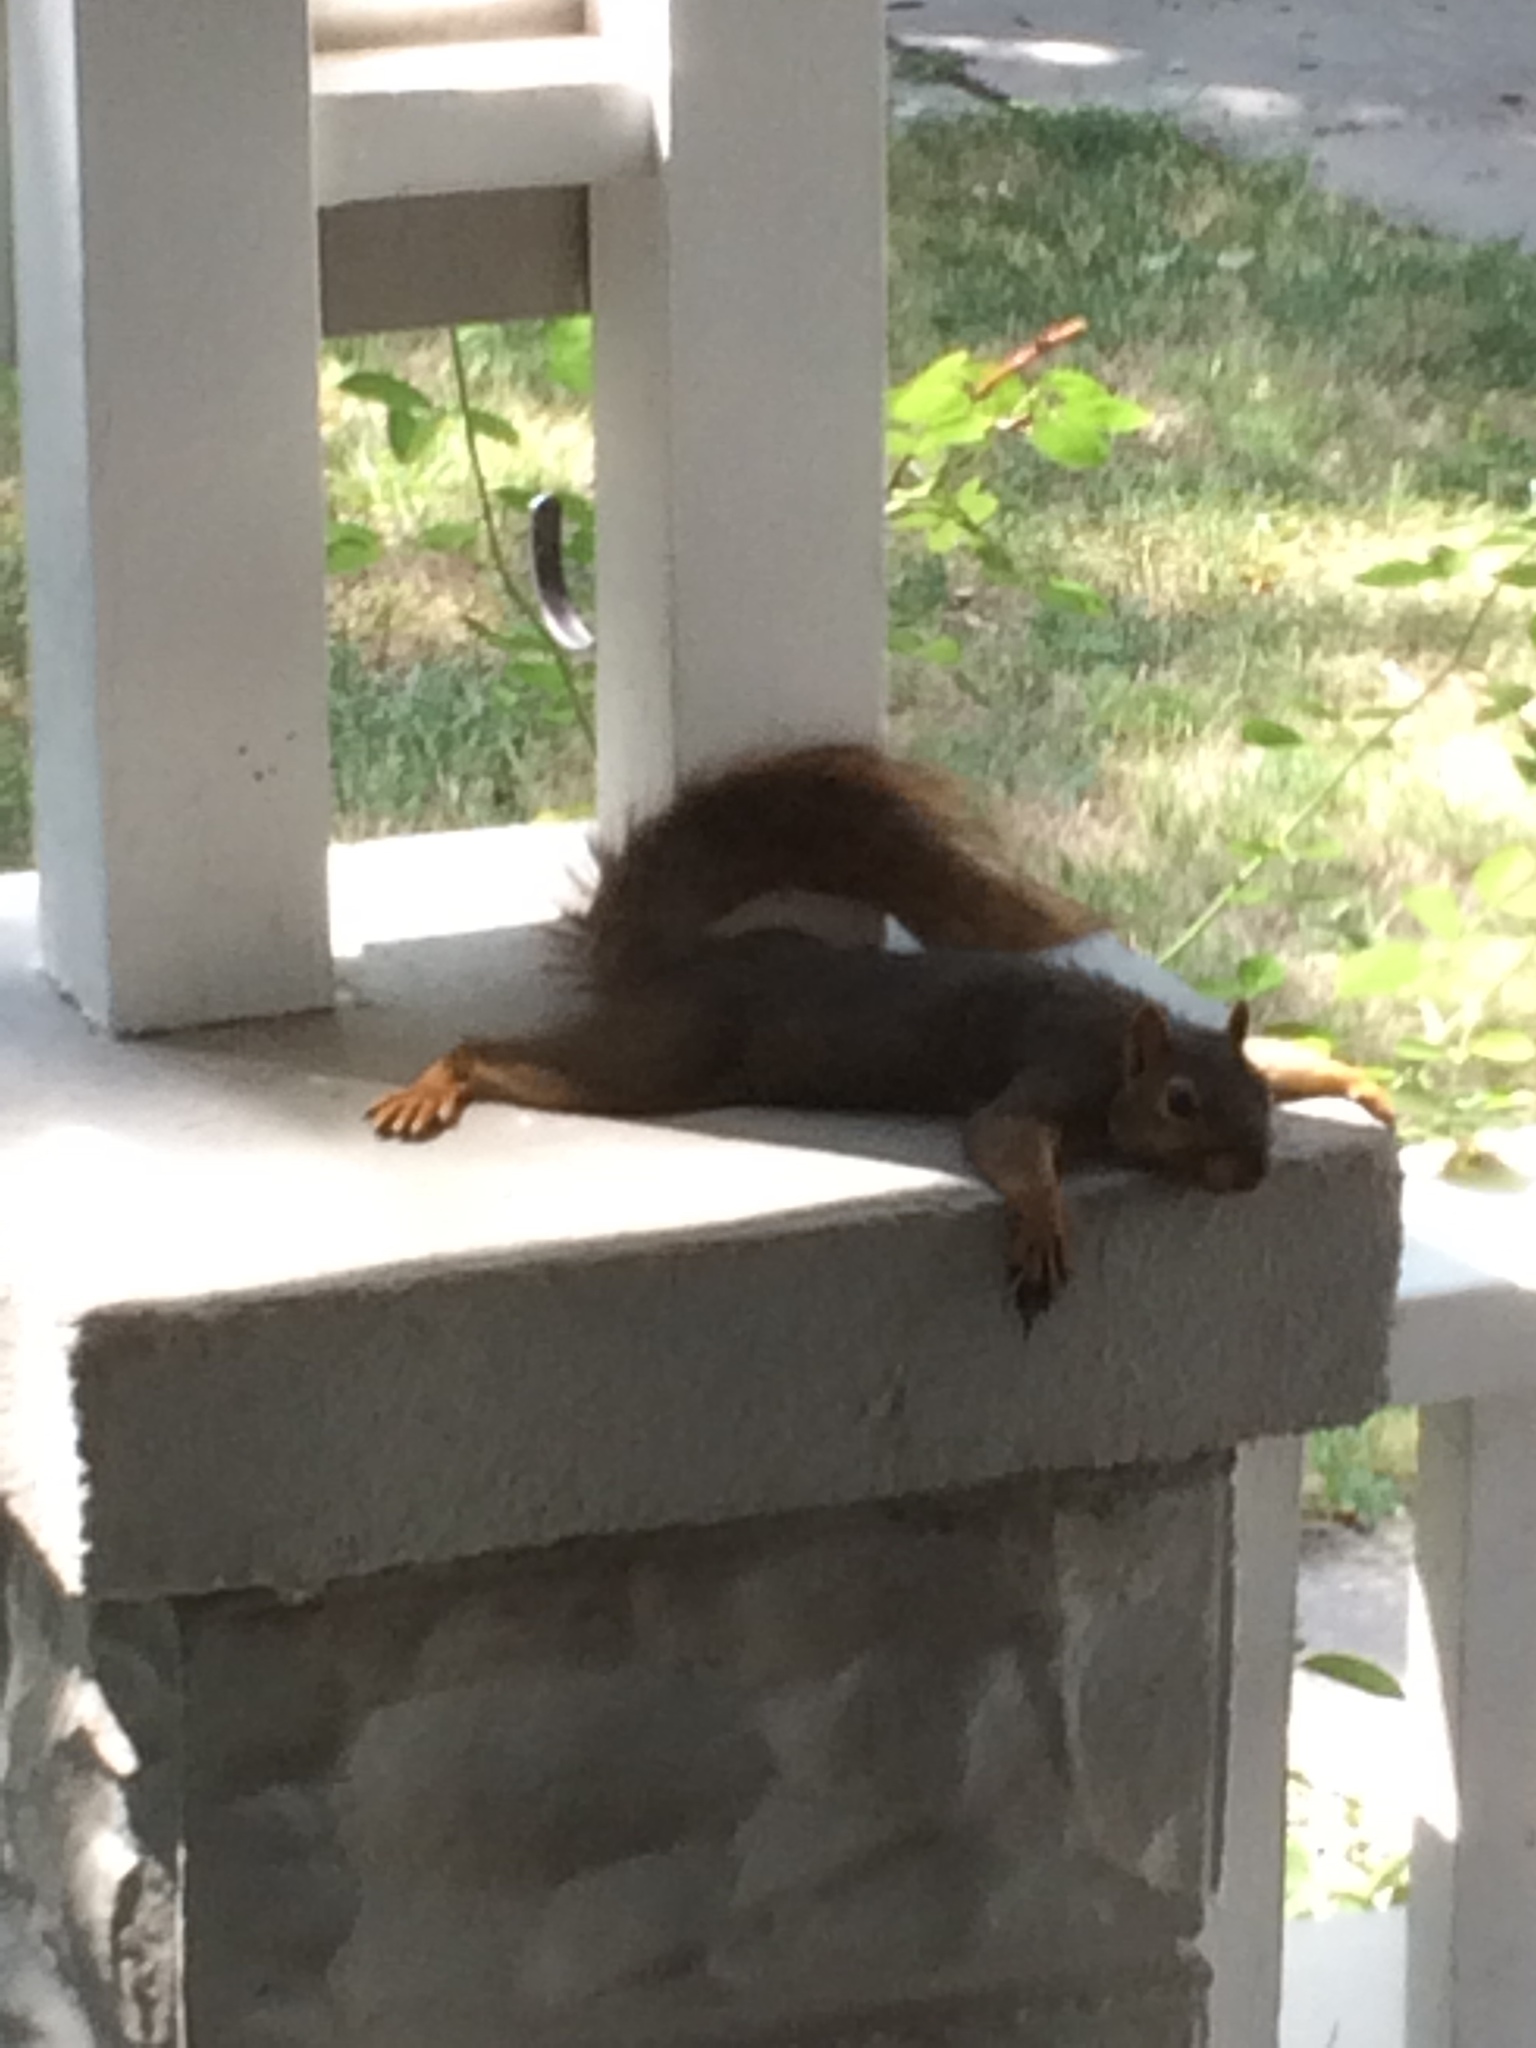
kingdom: Animalia
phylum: Chordata
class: Mammalia
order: Rodentia
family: Sciuridae
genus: Sciurus
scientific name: Sciurus niger
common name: Fox squirrel
